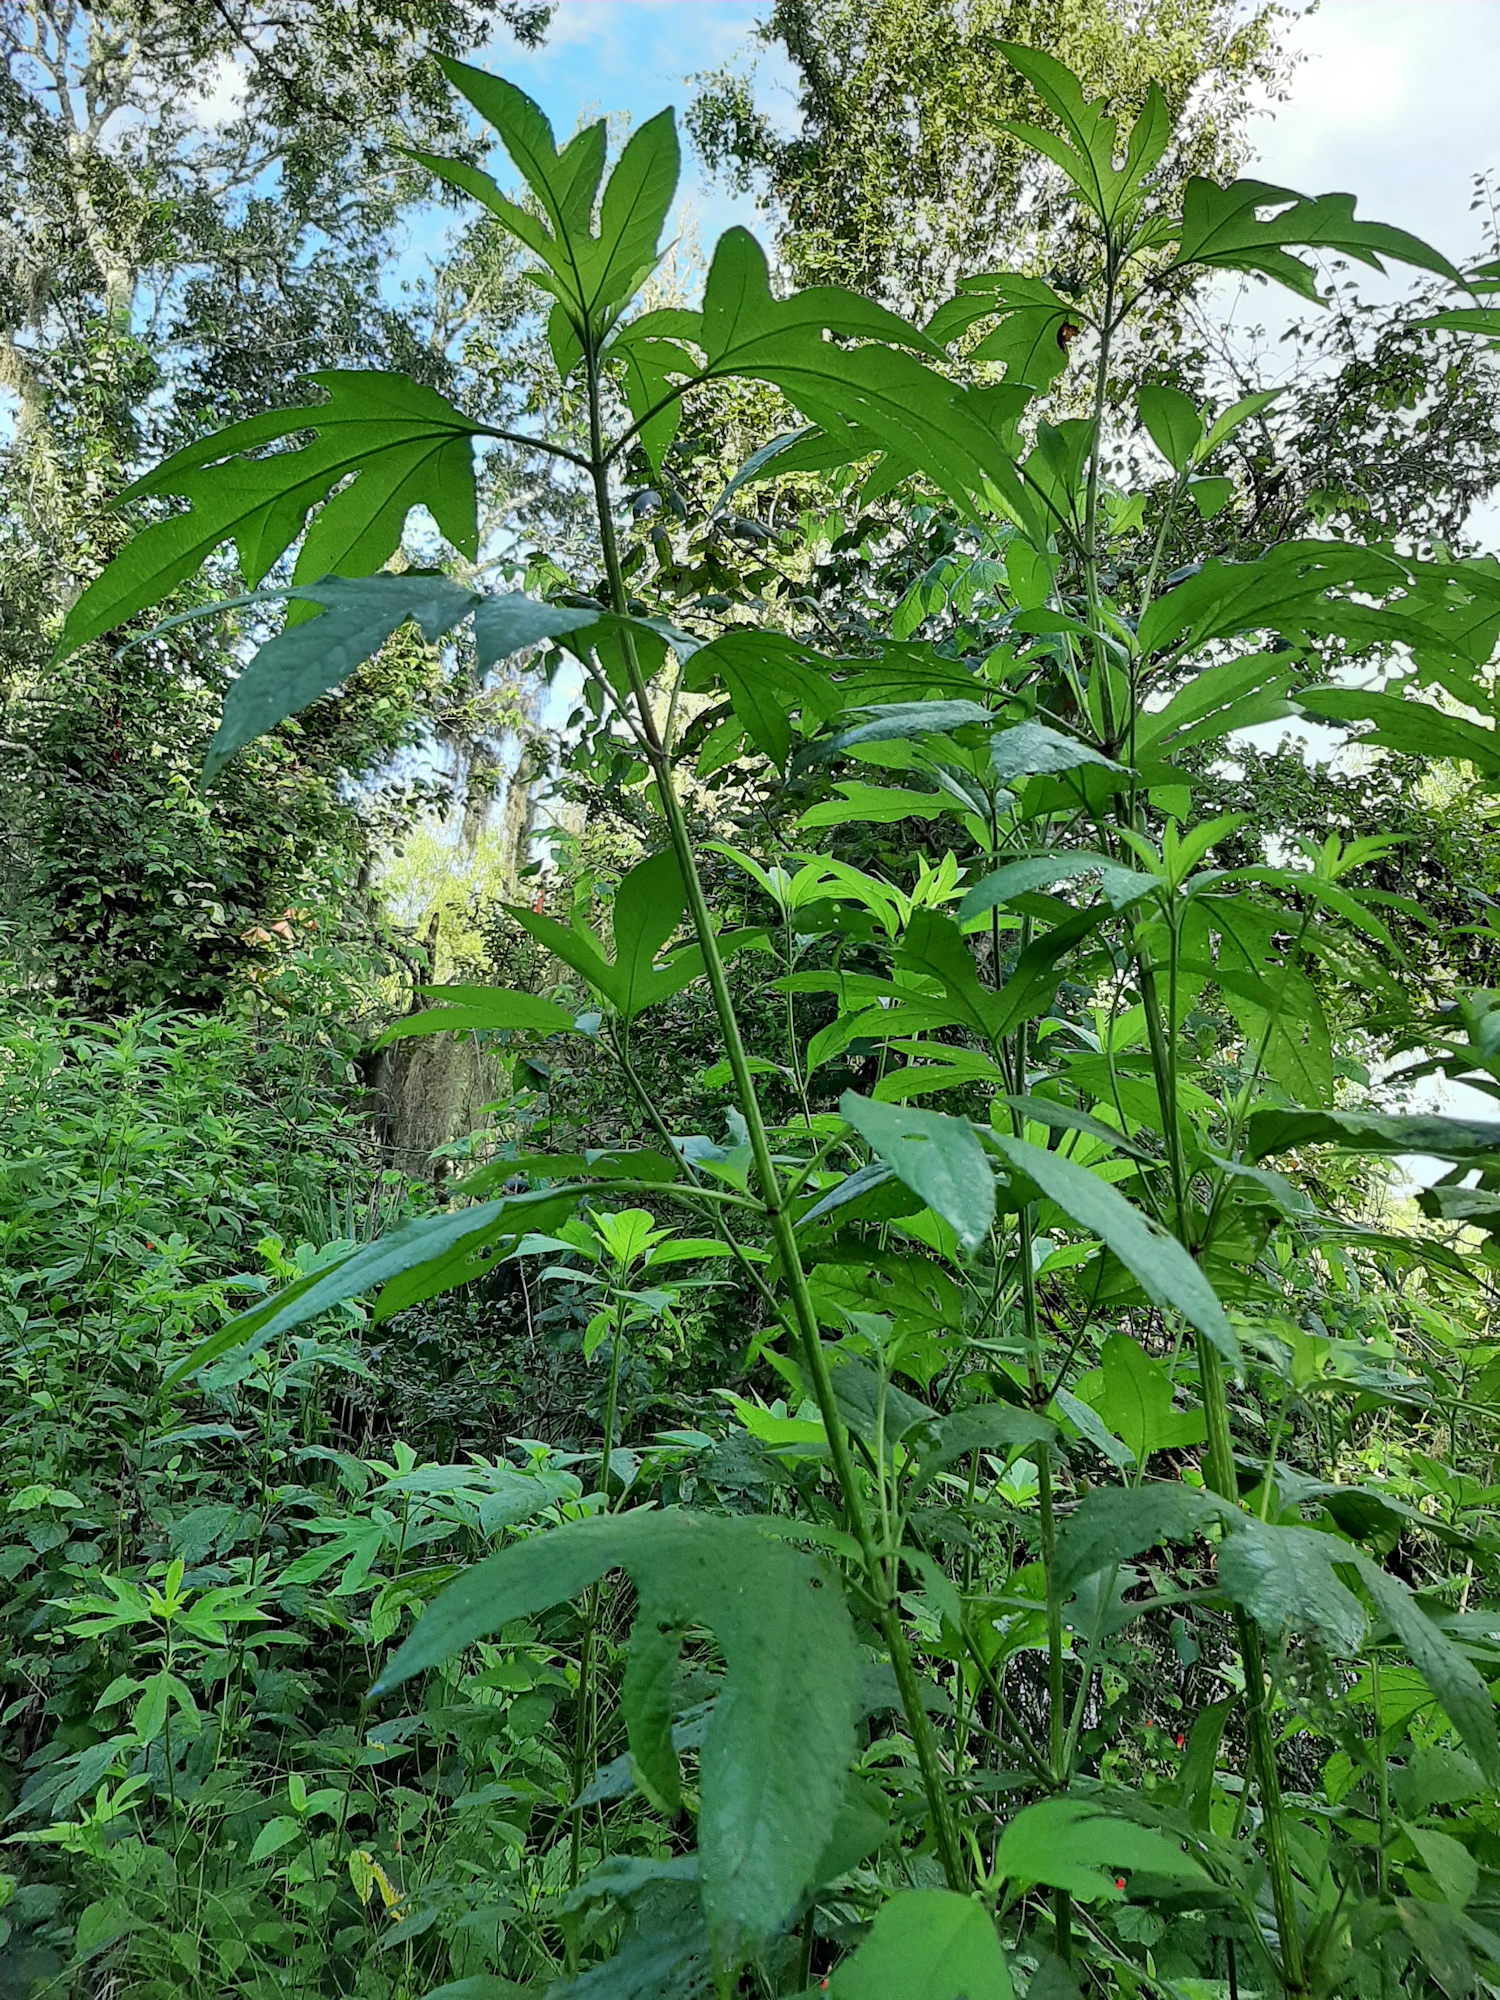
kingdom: Plantae
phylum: Tracheophyta
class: Magnoliopsida
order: Asterales
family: Asteraceae
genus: Ambrosia
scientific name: Ambrosia trifida
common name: Giant ragweed
